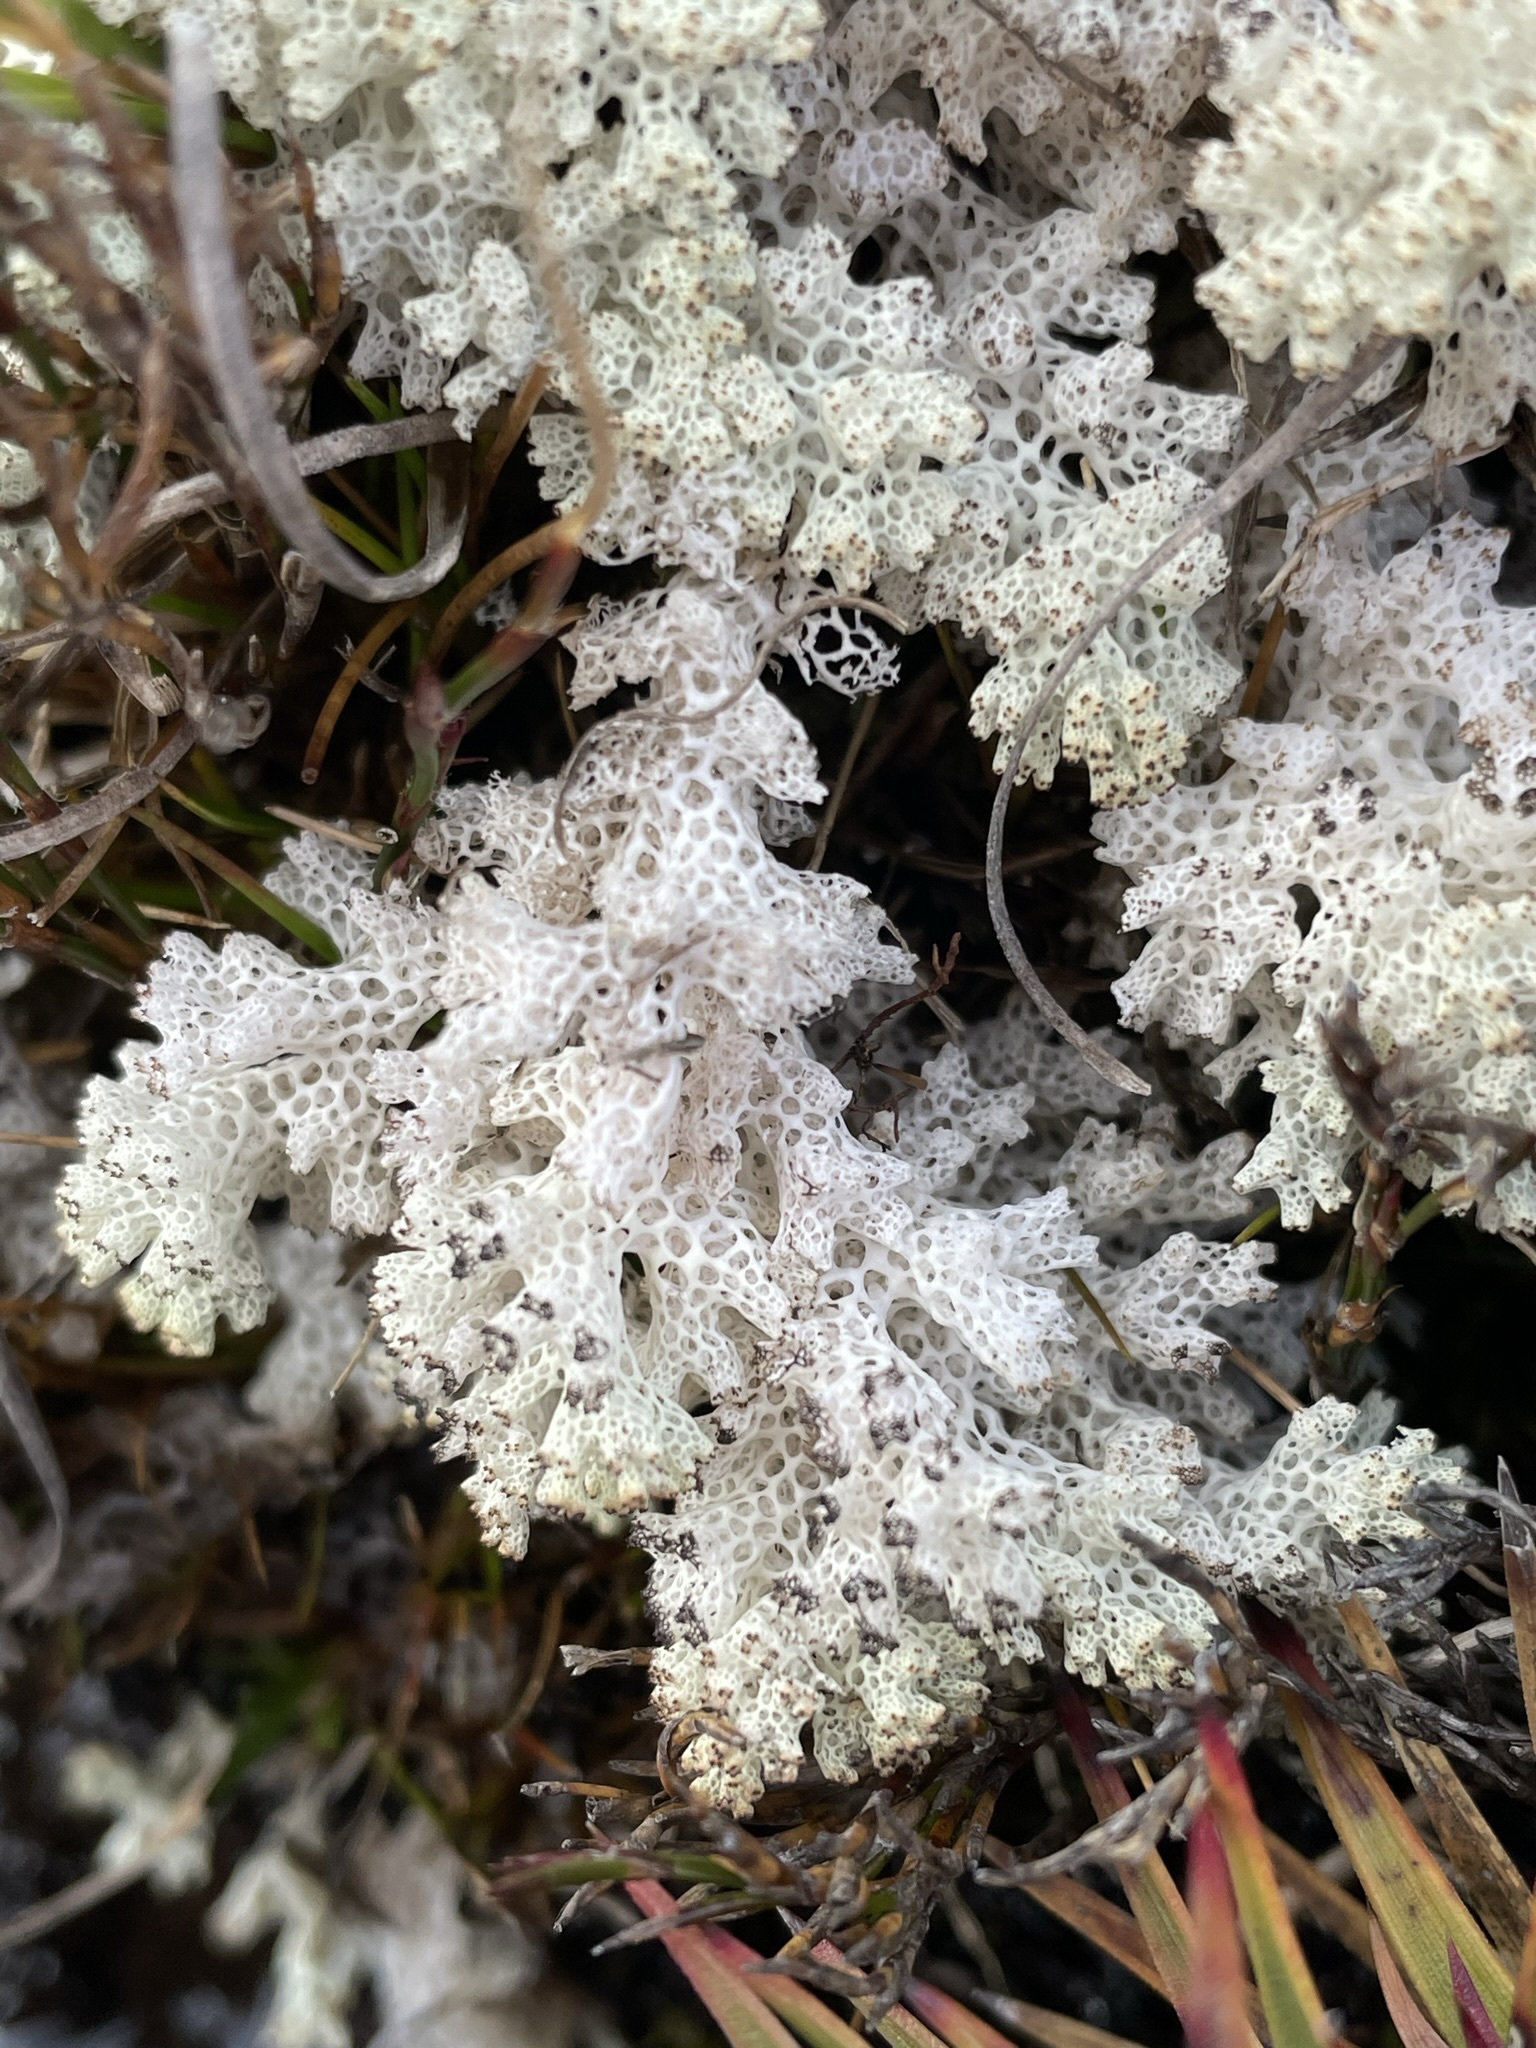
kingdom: Fungi
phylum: Ascomycota
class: Lecanoromycetes
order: Lecanorales
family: Cladoniaceae
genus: Pulchrocladia
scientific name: Pulchrocladia retipora
